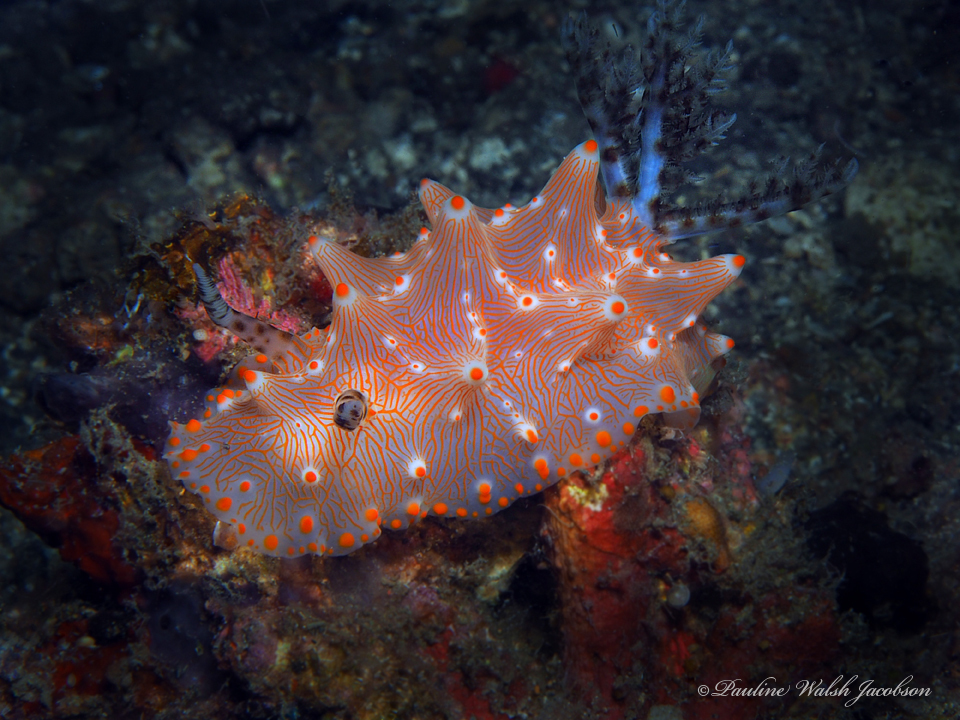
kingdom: Animalia
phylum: Mollusca
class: Gastropoda
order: Nudibranchia
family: Discodorididae
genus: Halgerda
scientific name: Halgerda batangas
